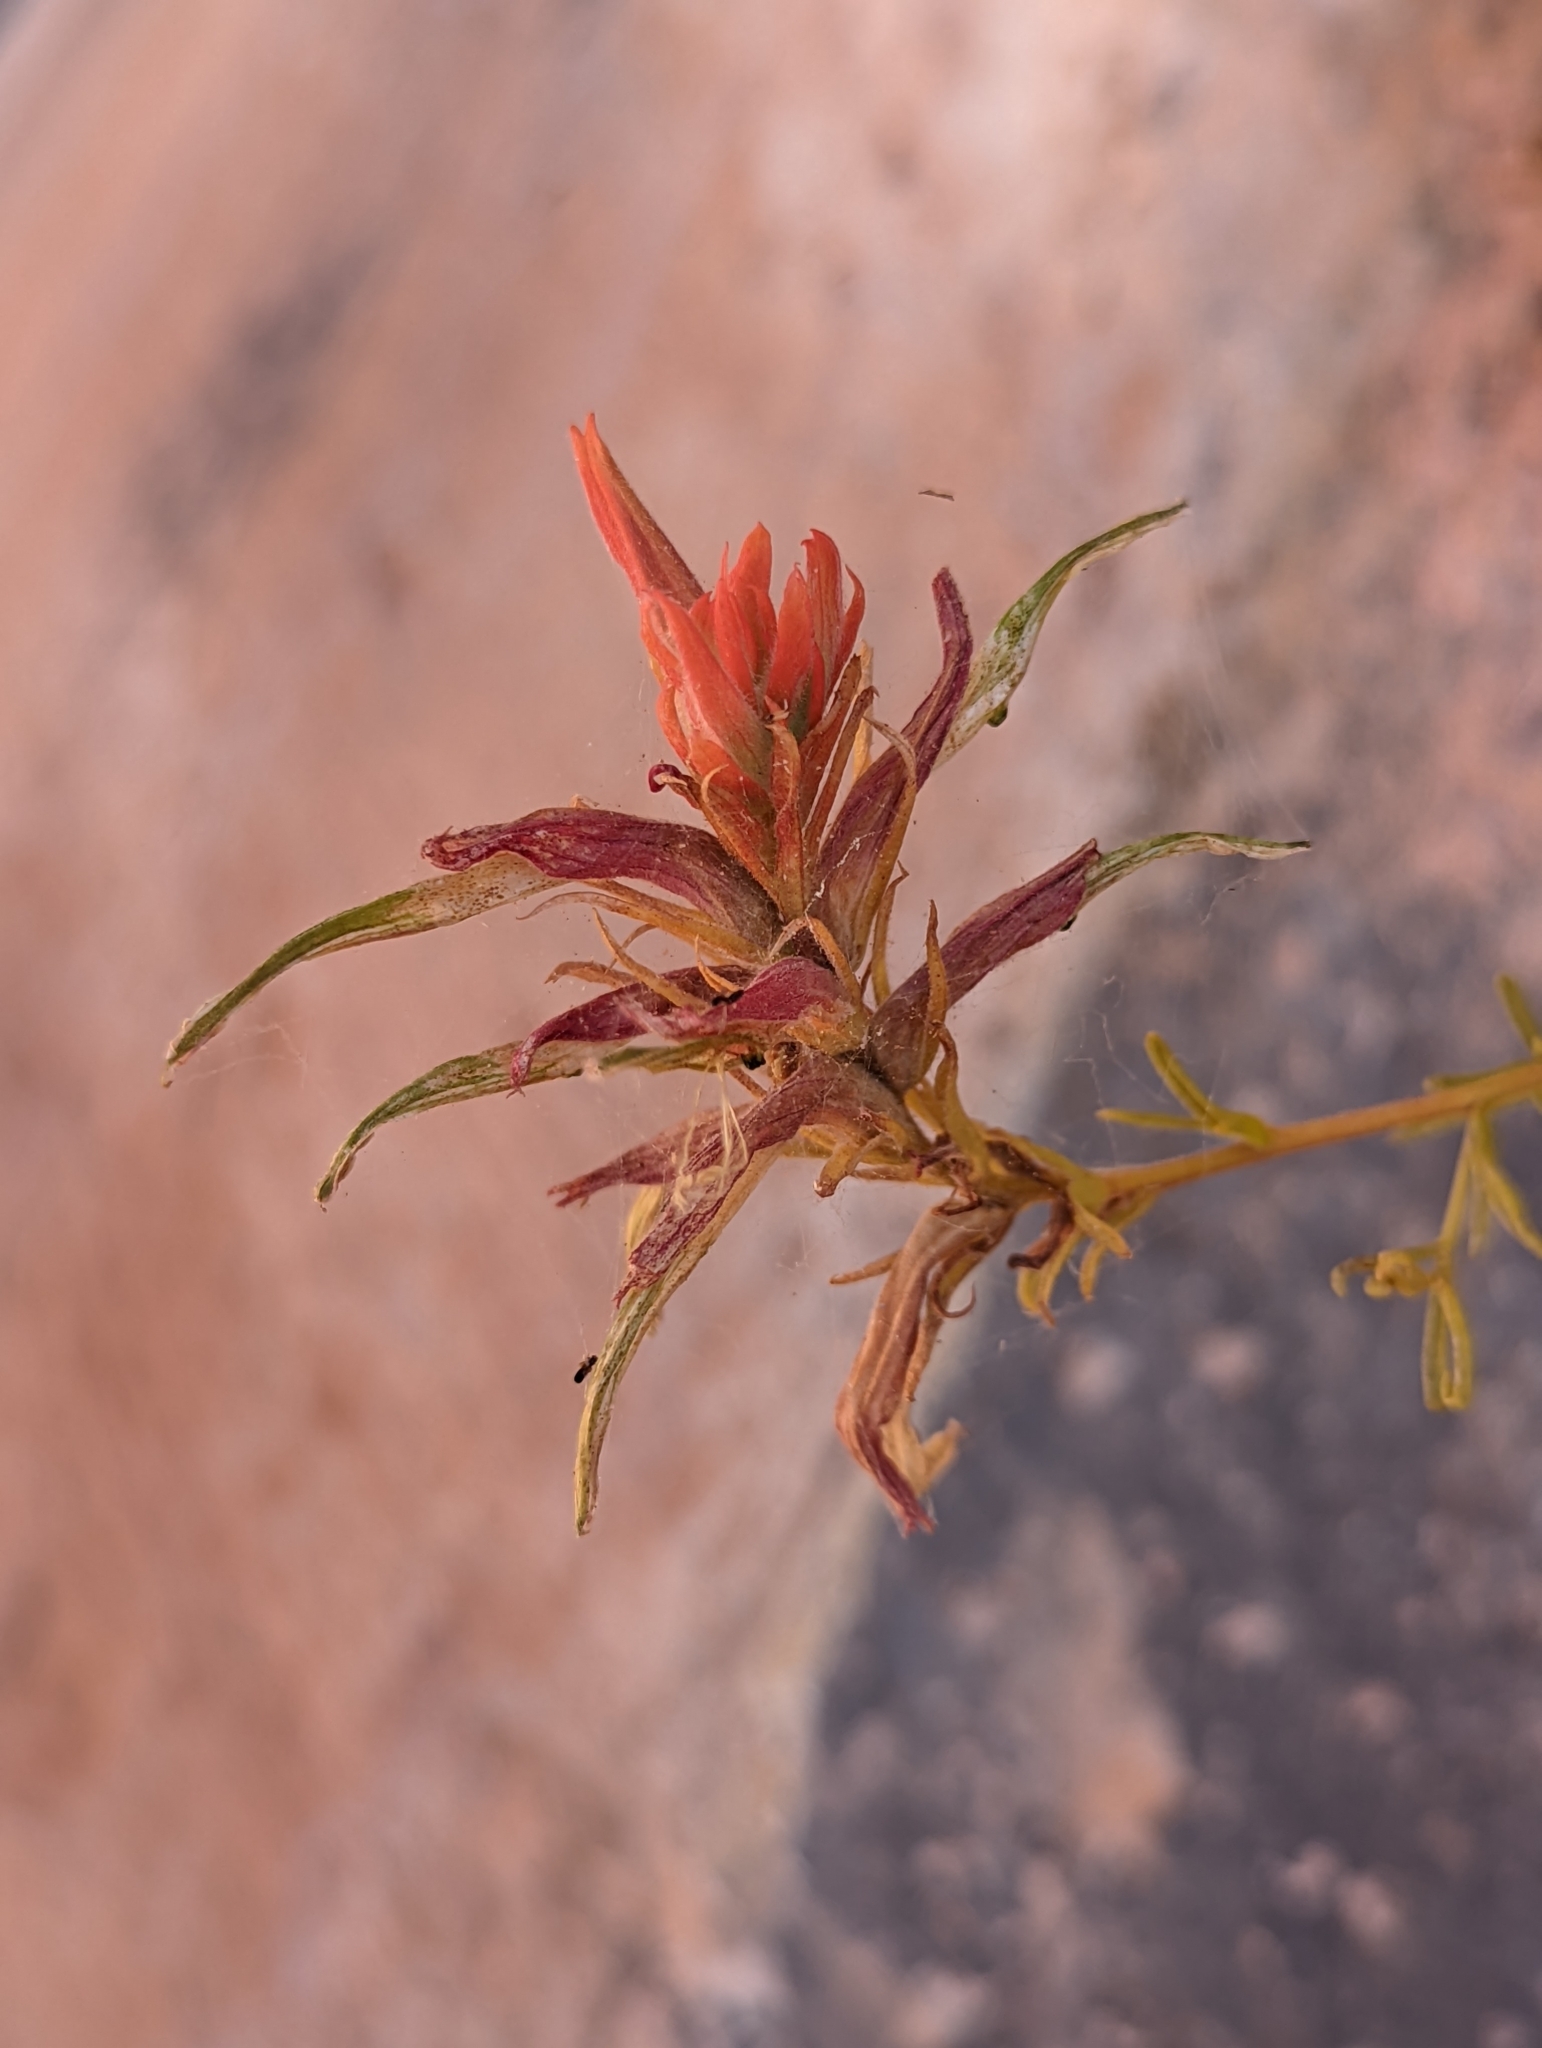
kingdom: Plantae
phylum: Tracheophyta
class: Magnoliopsida
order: Lamiales
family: Orobanchaceae
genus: Castilleja
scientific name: Castilleja linariifolia
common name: Wyoming paintbrush
